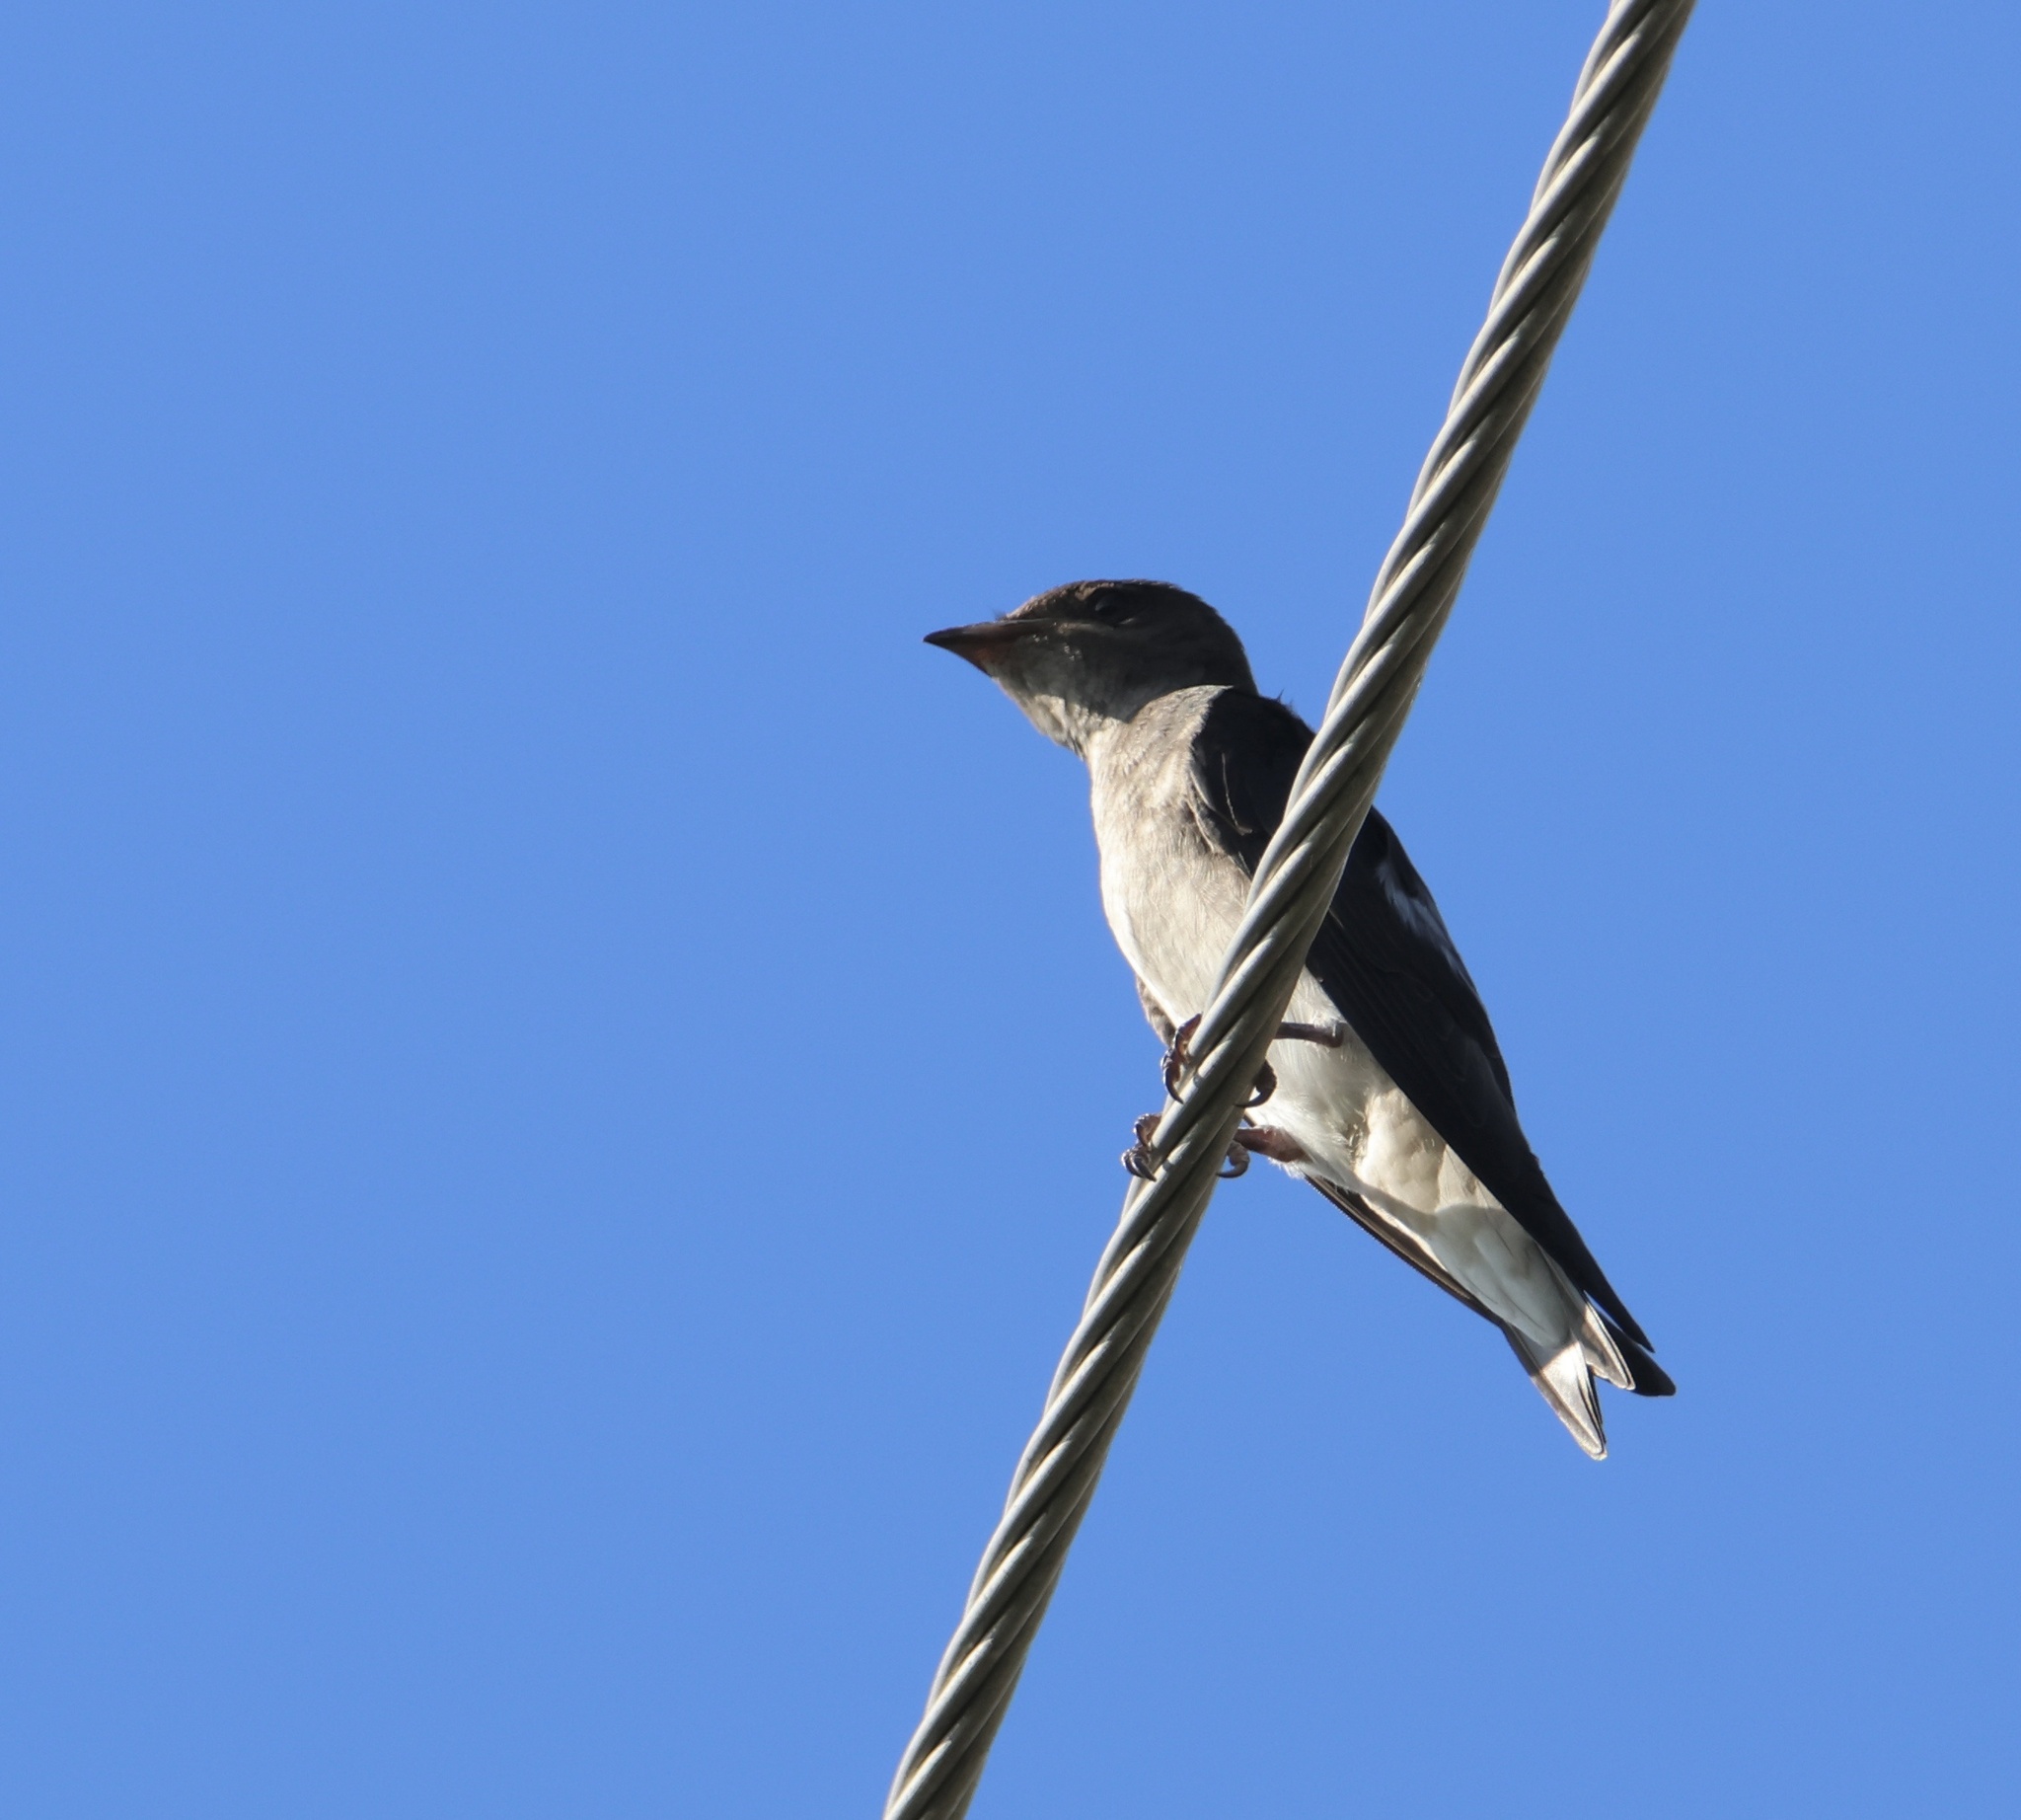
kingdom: Animalia
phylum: Chordata
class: Aves
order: Passeriformes
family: Hirundinidae
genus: Progne
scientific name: Progne chalybea
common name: Grey-breasted martin
